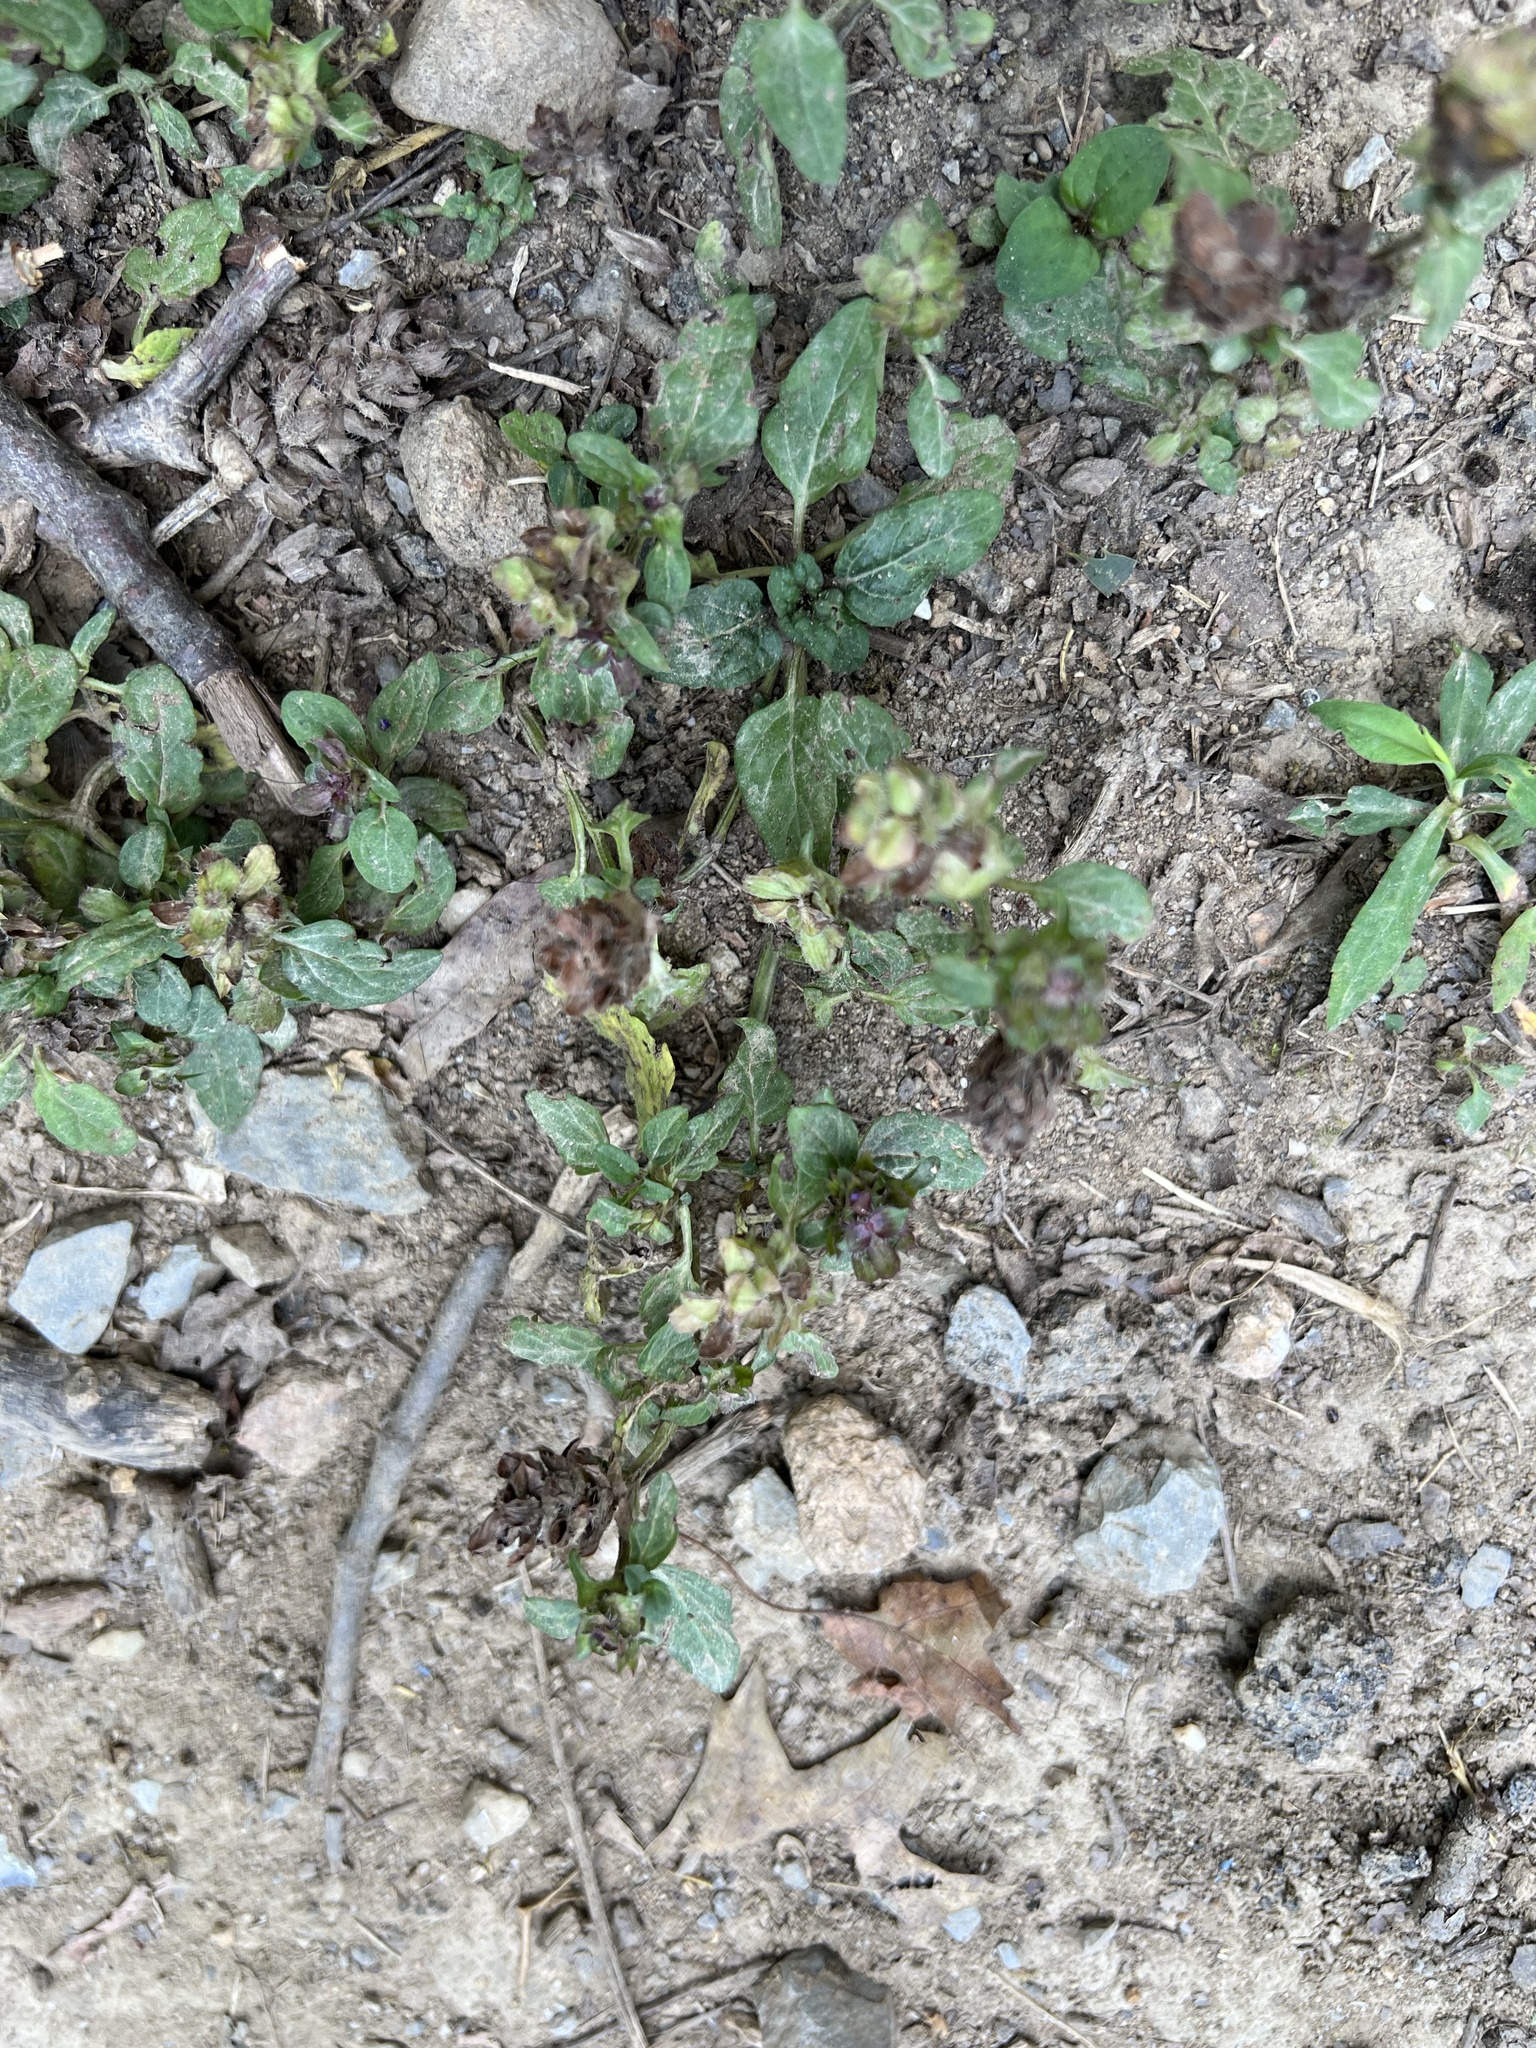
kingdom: Plantae
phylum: Tracheophyta
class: Magnoliopsida
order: Lamiales
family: Lamiaceae
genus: Prunella
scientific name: Prunella vulgaris
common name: Heal-all
